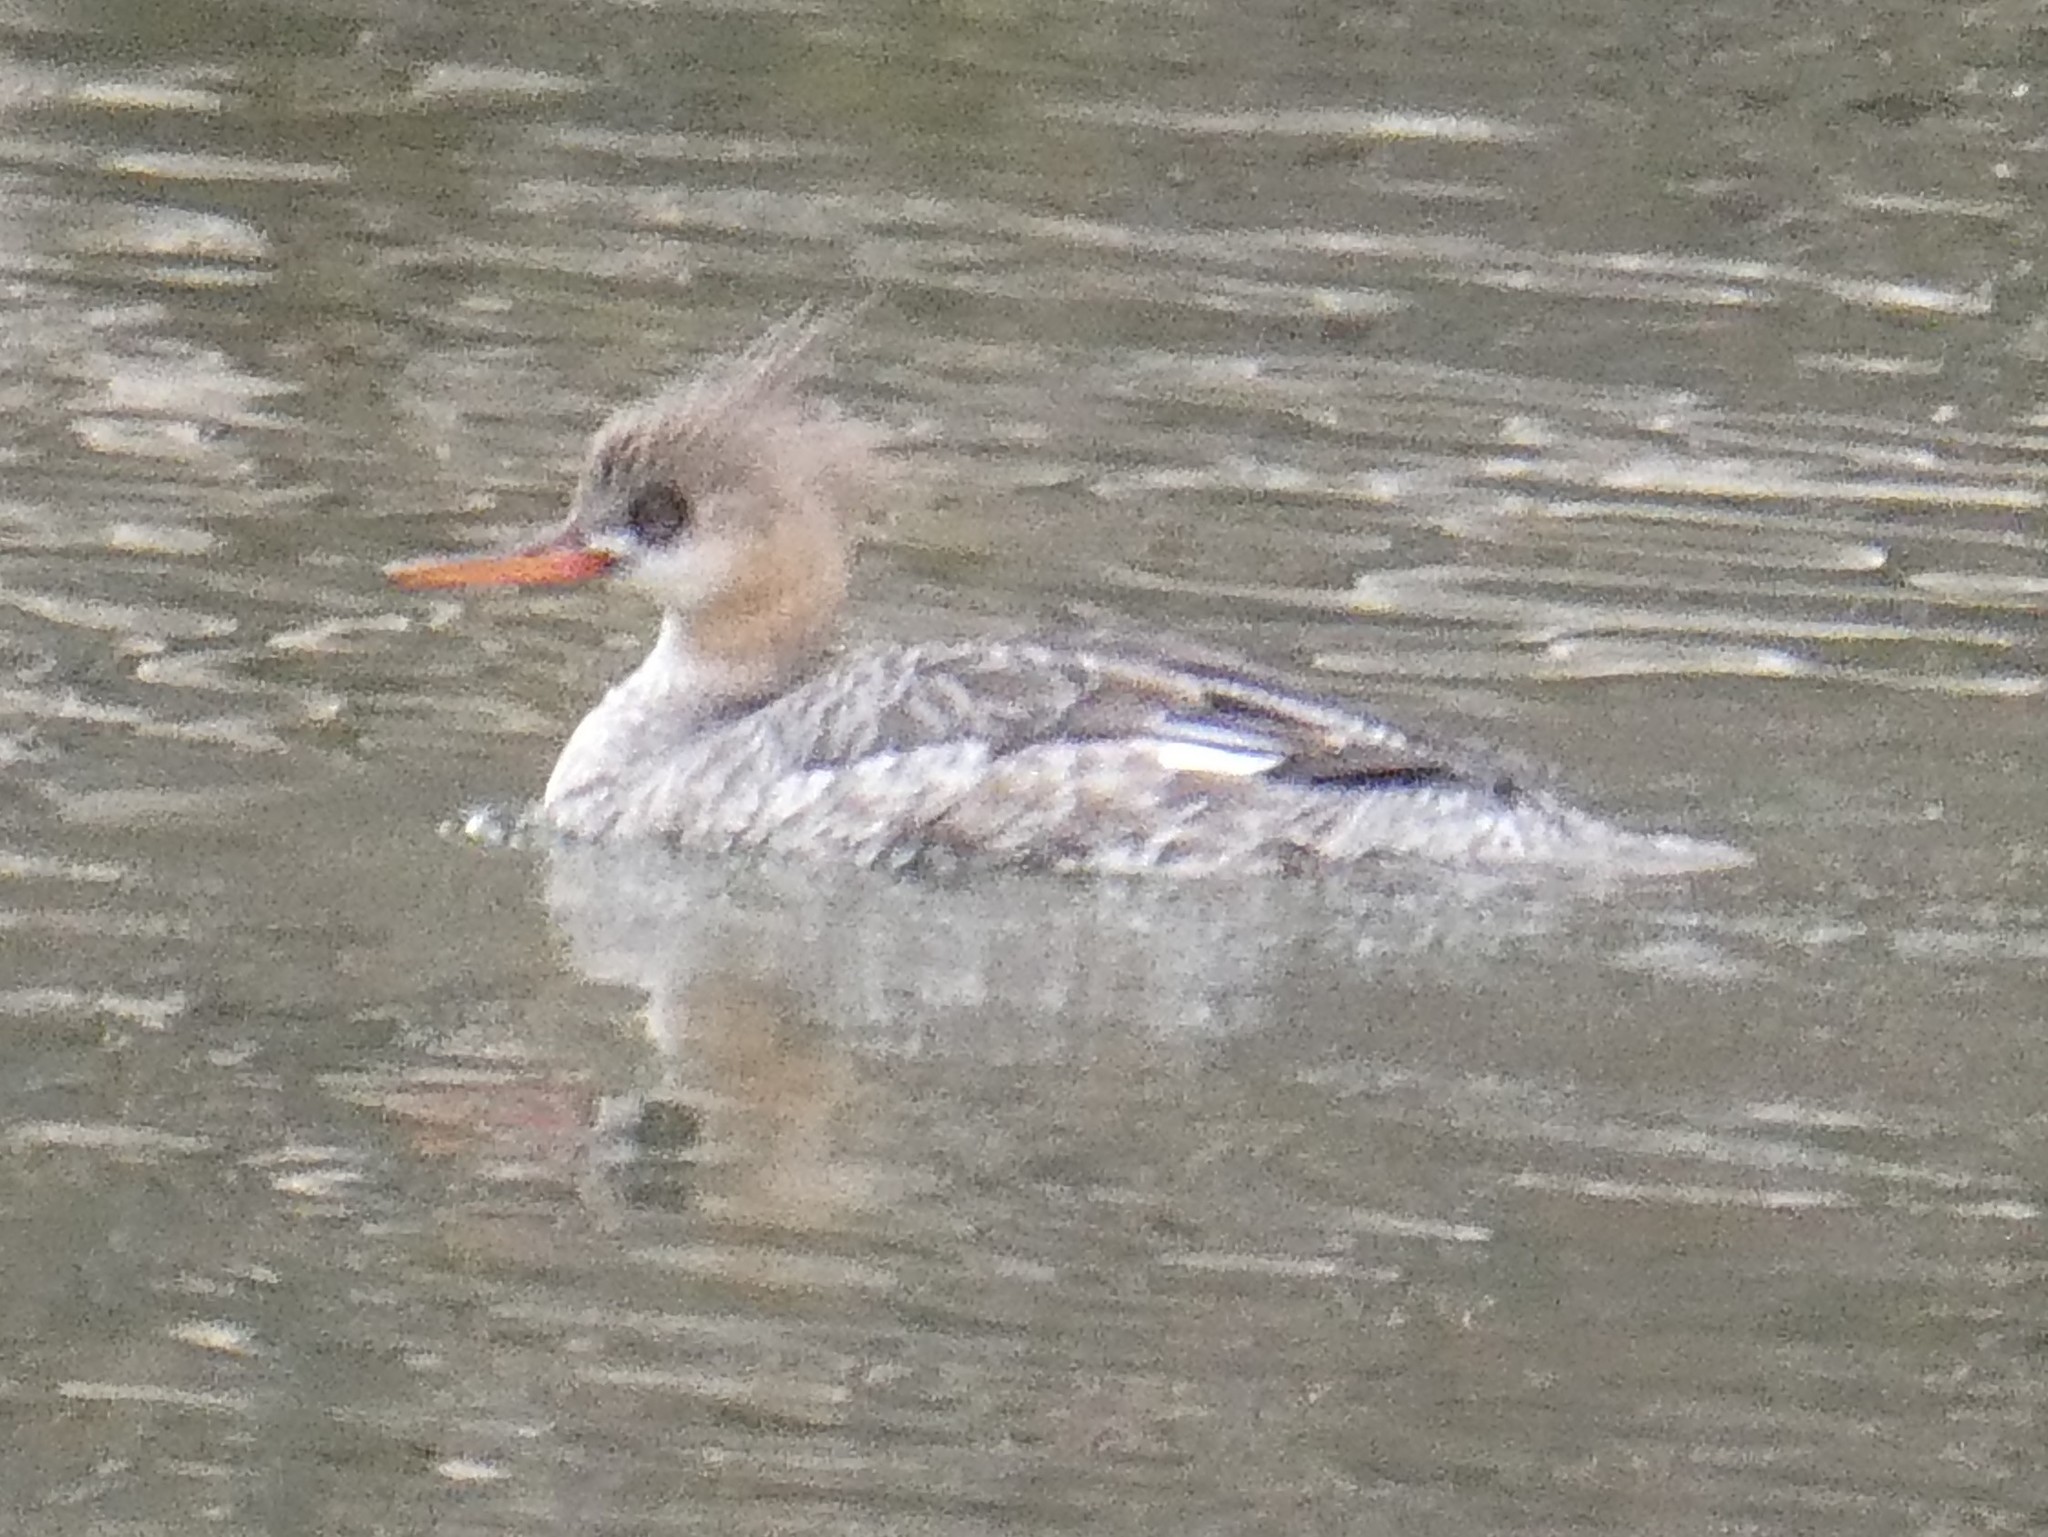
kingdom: Animalia
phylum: Chordata
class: Aves
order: Anseriformes
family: Anatidae
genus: Mergus
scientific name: Mergus serrator
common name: Red-breasted merganser
